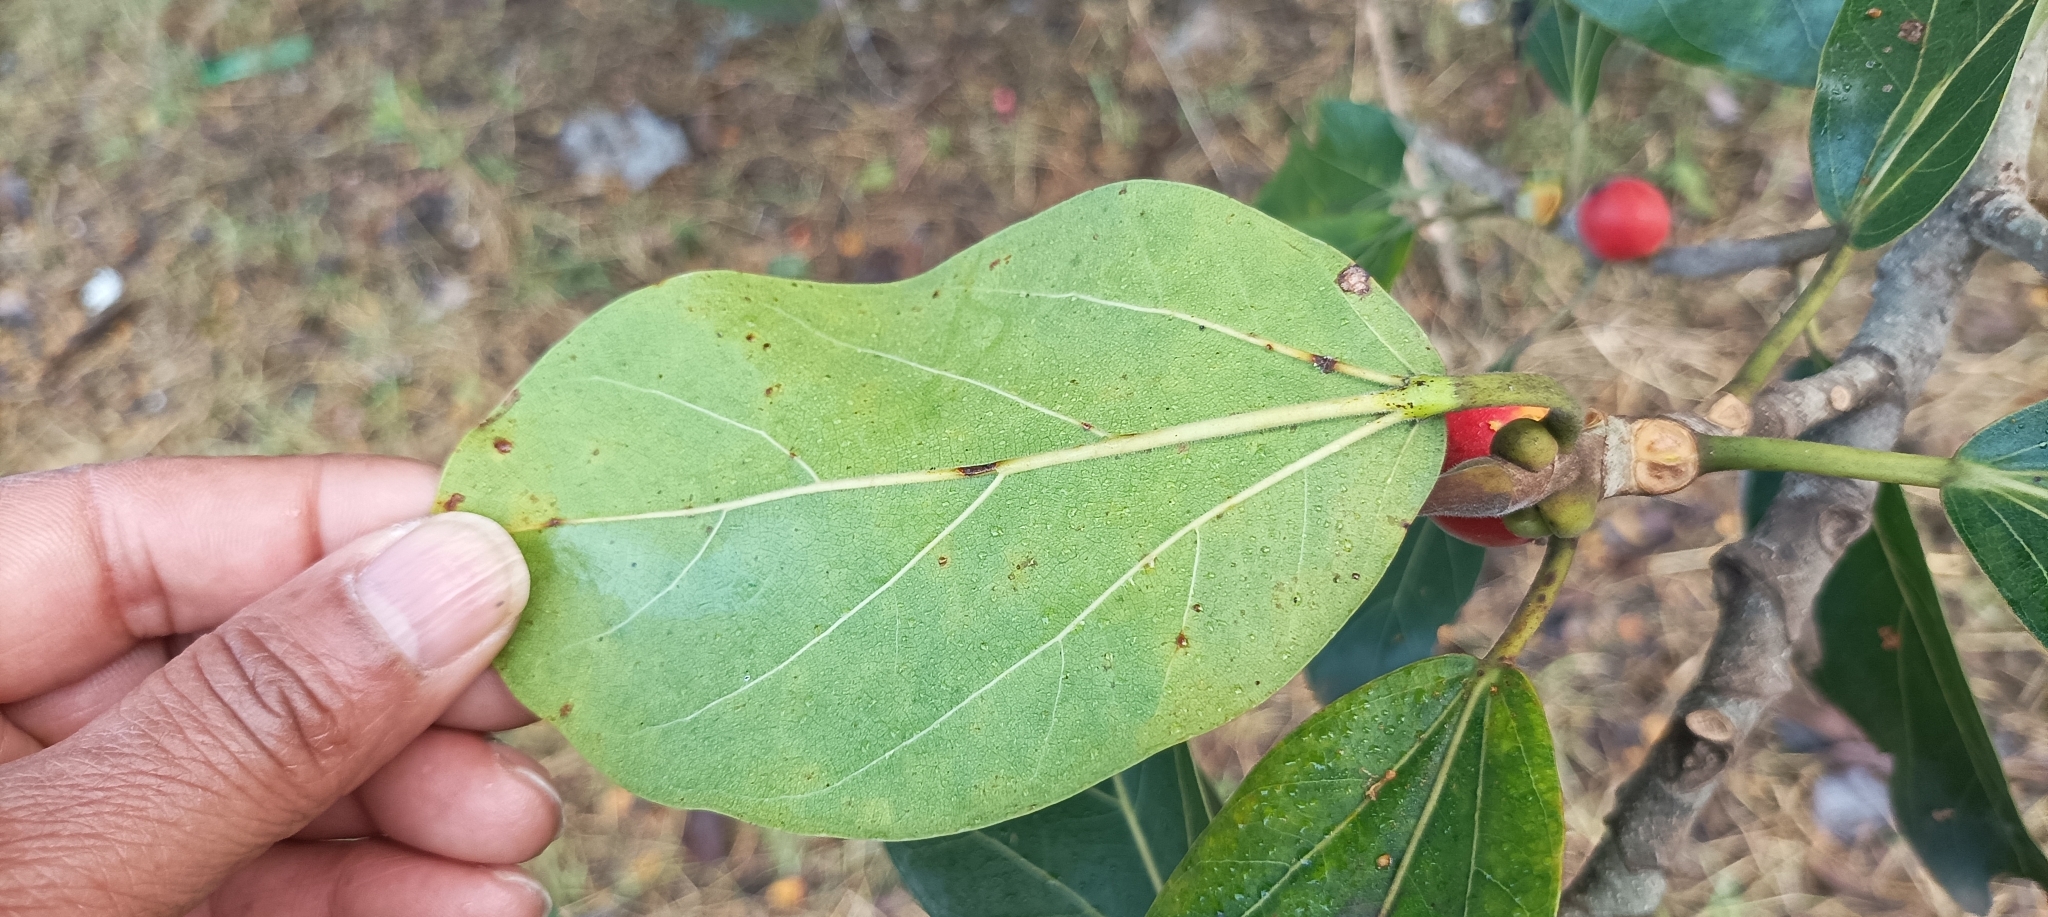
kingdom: Plantae
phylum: Tracheophyta
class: Magnoliopsida
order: Rosales
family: Moraceae
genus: Ficus
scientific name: Ficus benghalensis
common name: Indian banyan
